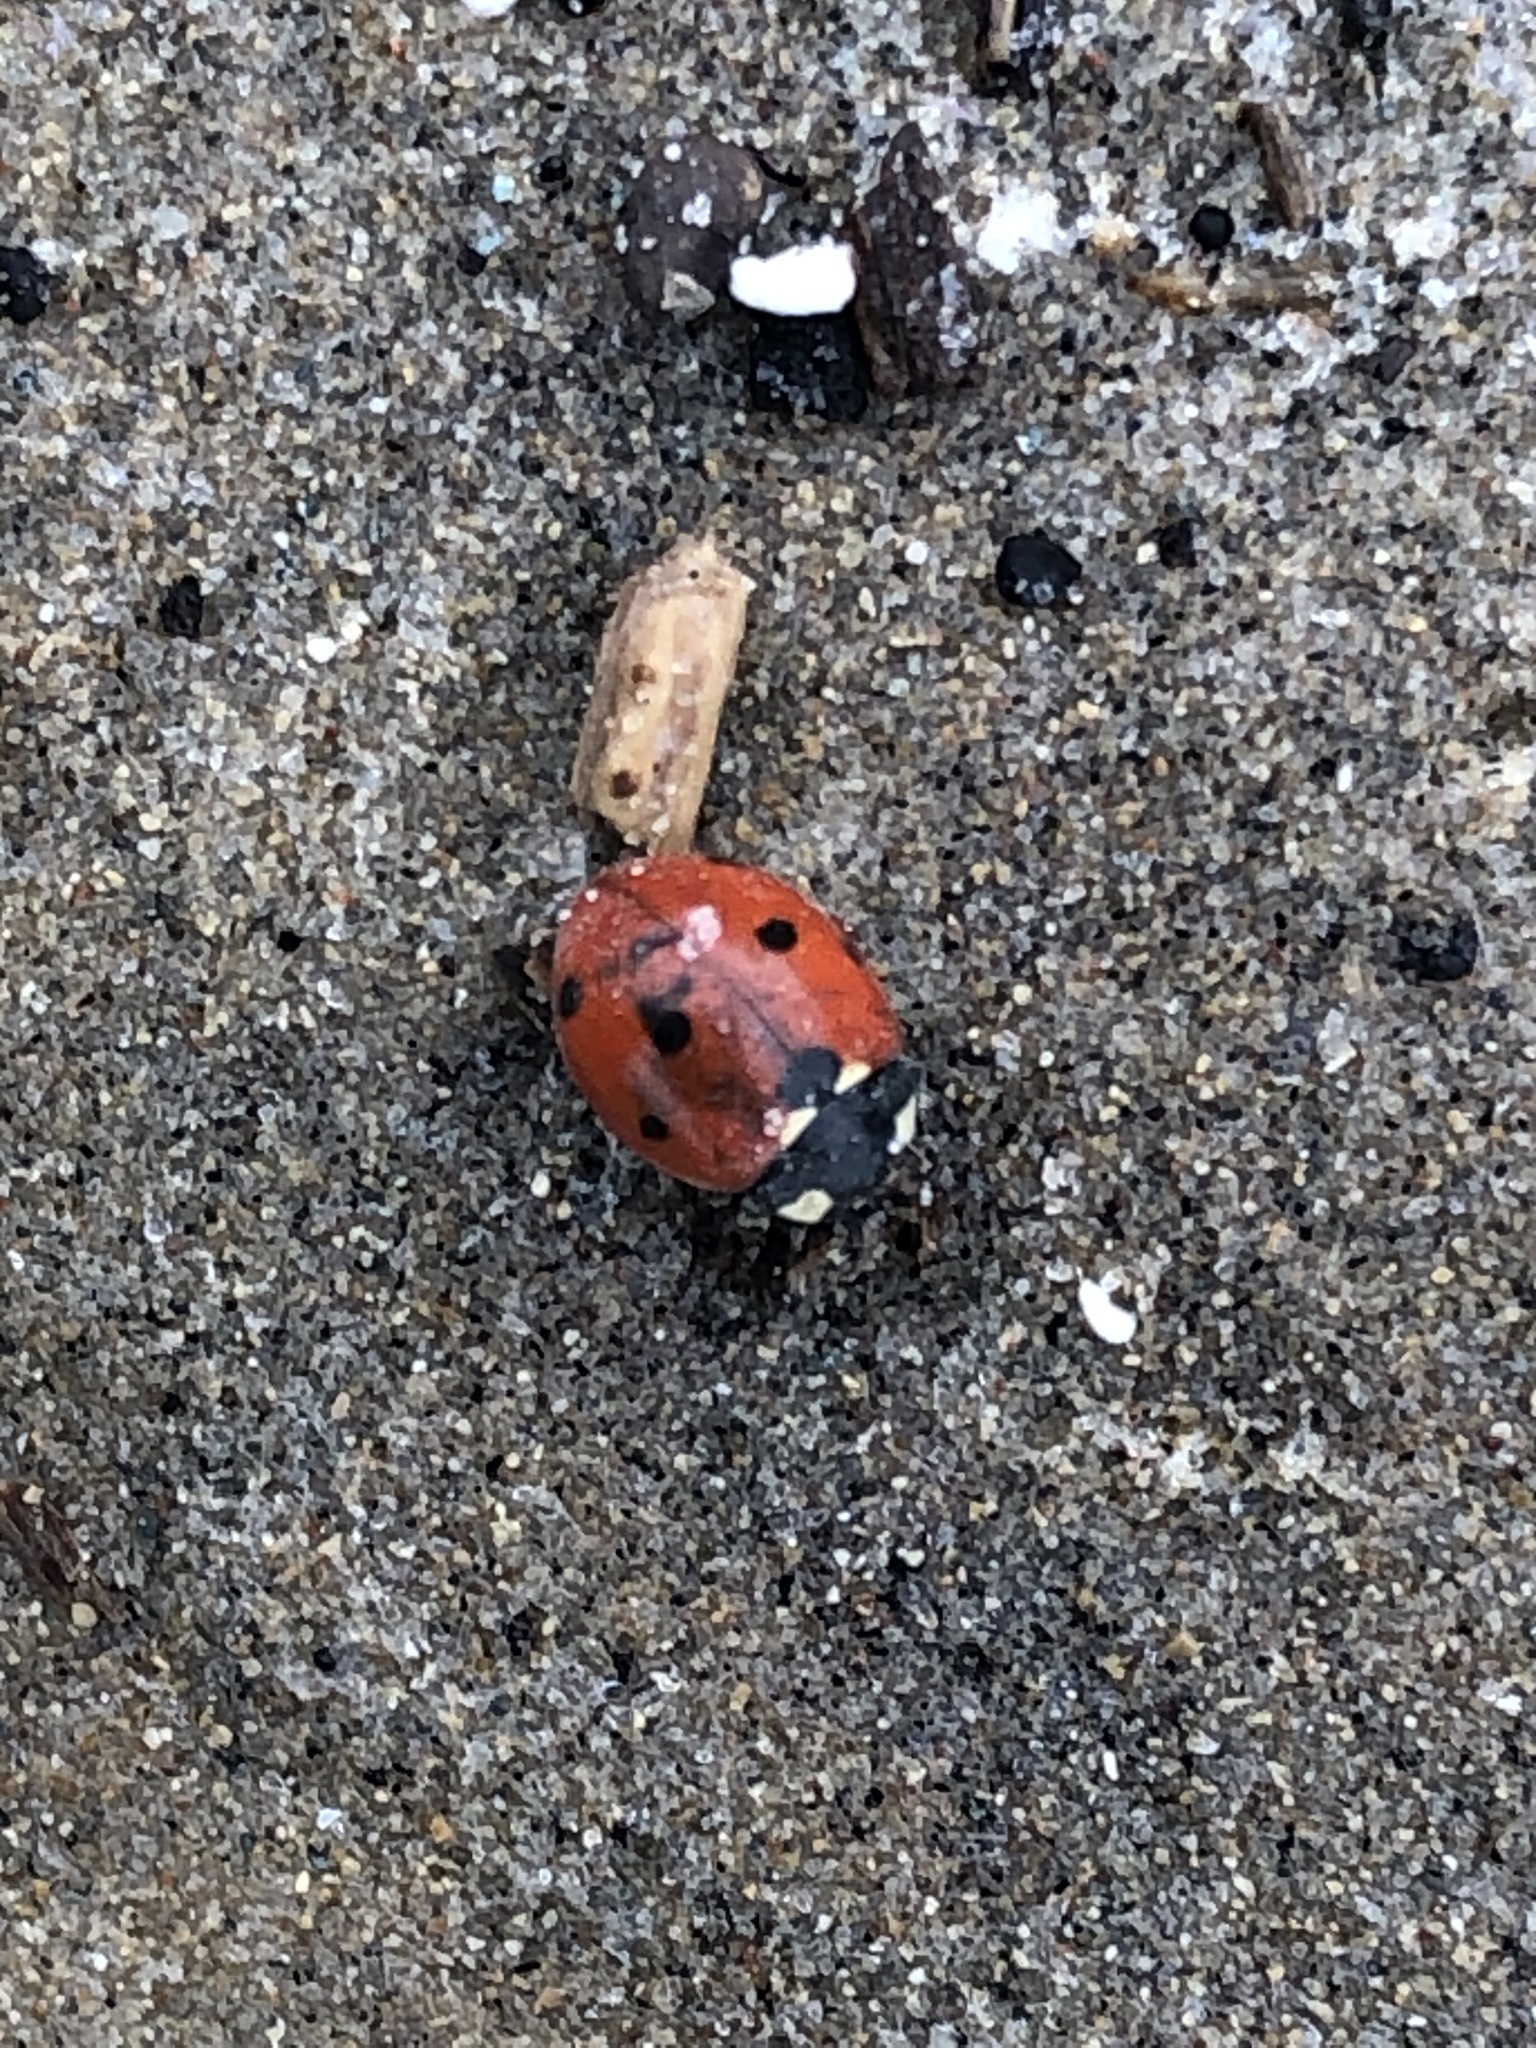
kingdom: Animalia
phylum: Arthropoda
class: Insecta
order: Coleoptera
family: Coccinellidae
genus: Coccinella
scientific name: Coccinella septempunctata
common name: Sevenspotted lady beetle
